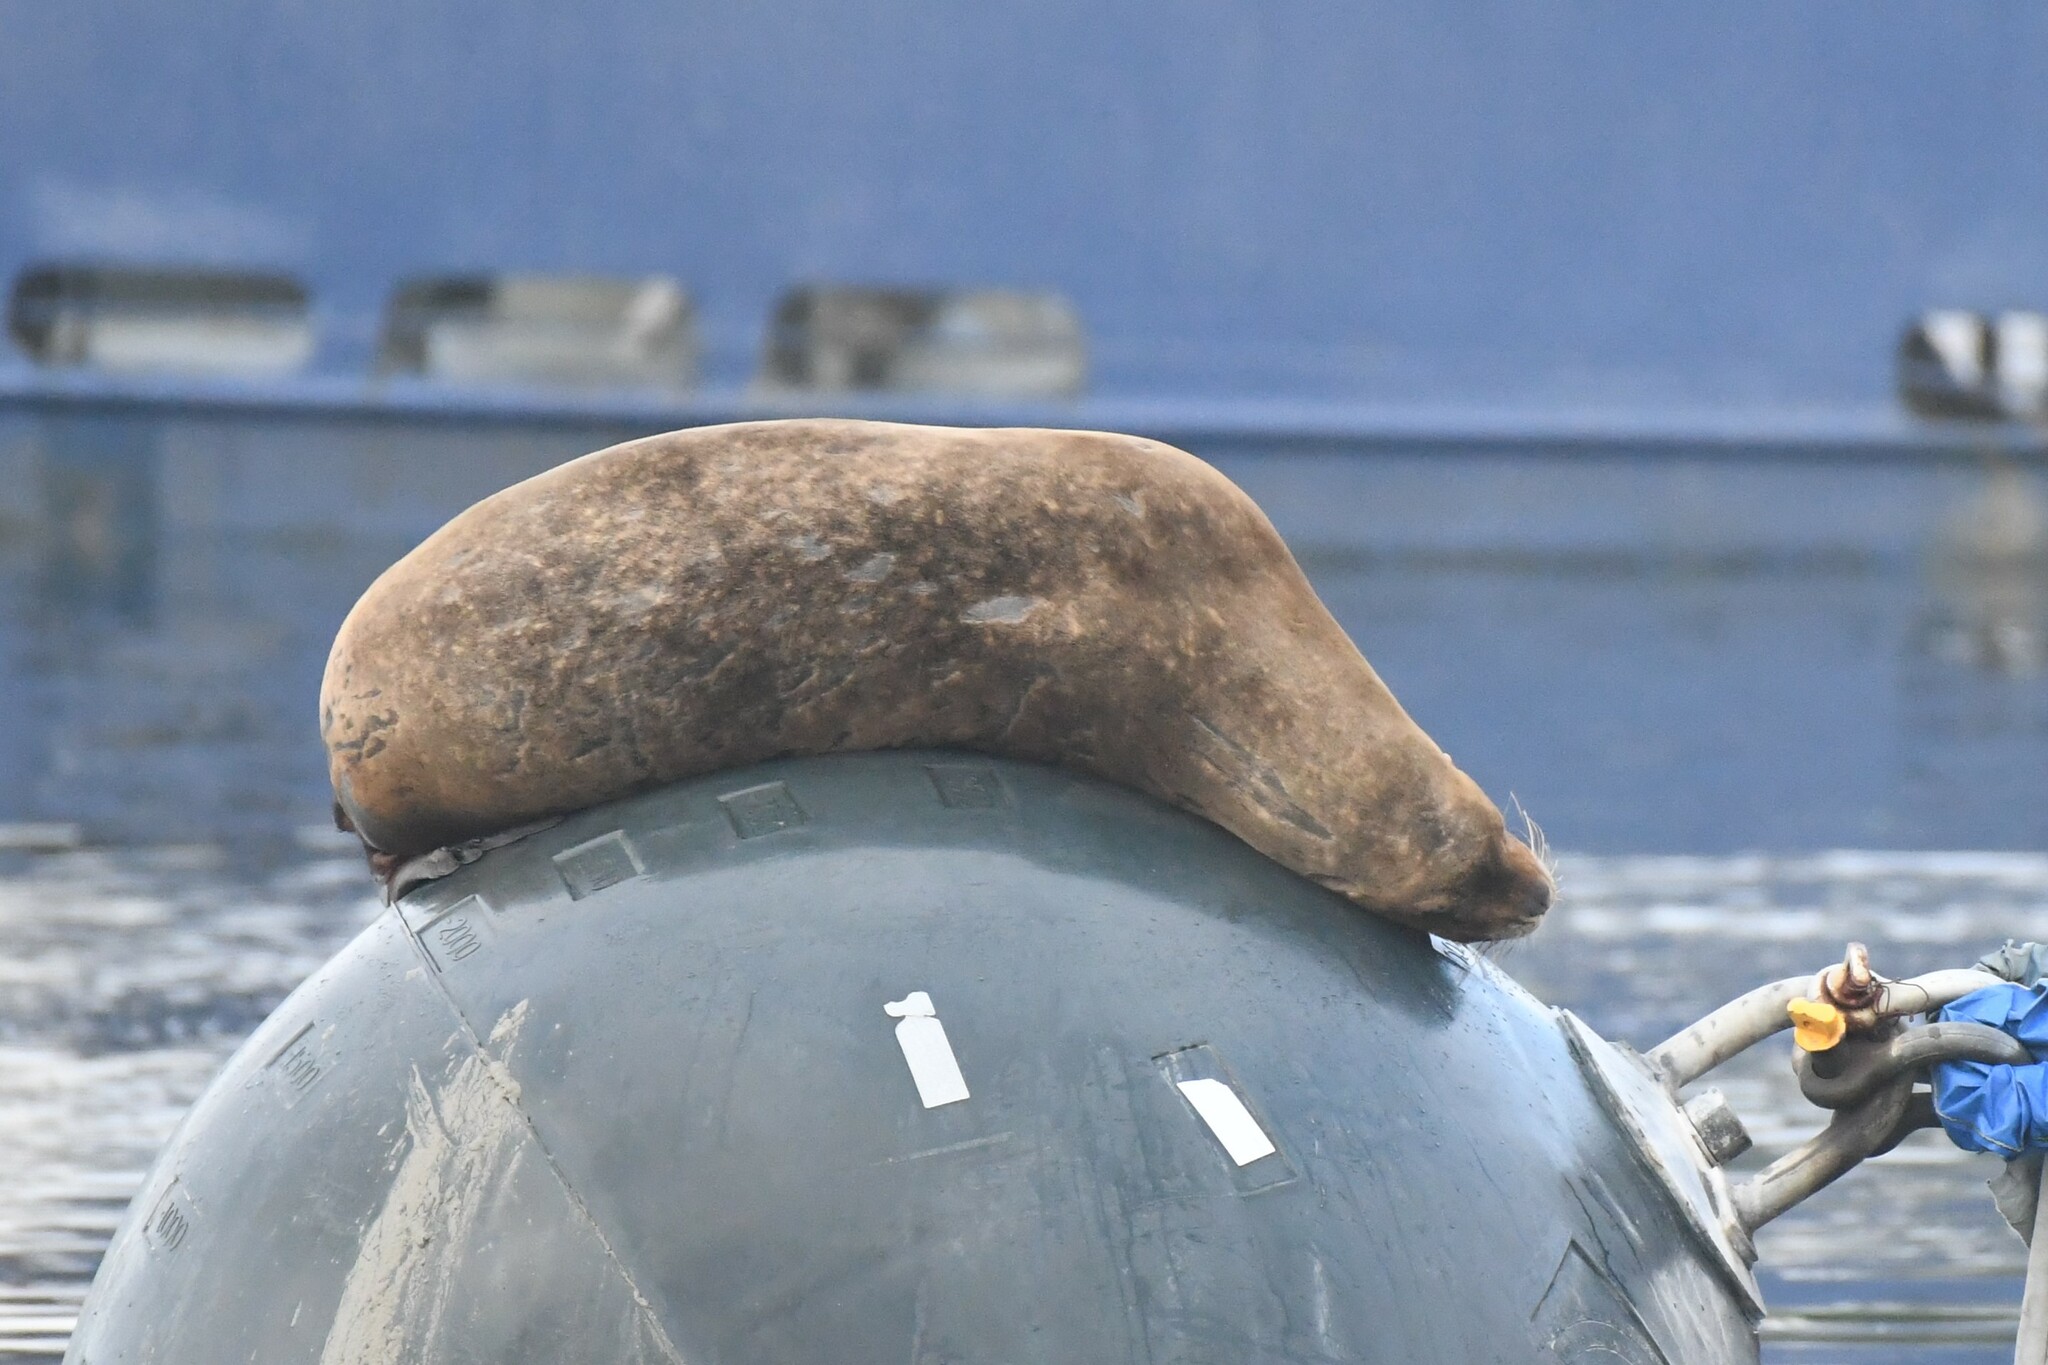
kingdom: Animalia
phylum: Chordata
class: Mammalia
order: Carnivora
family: Otariidae
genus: Otaria
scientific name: Otaria byronia
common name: South american sea lion
